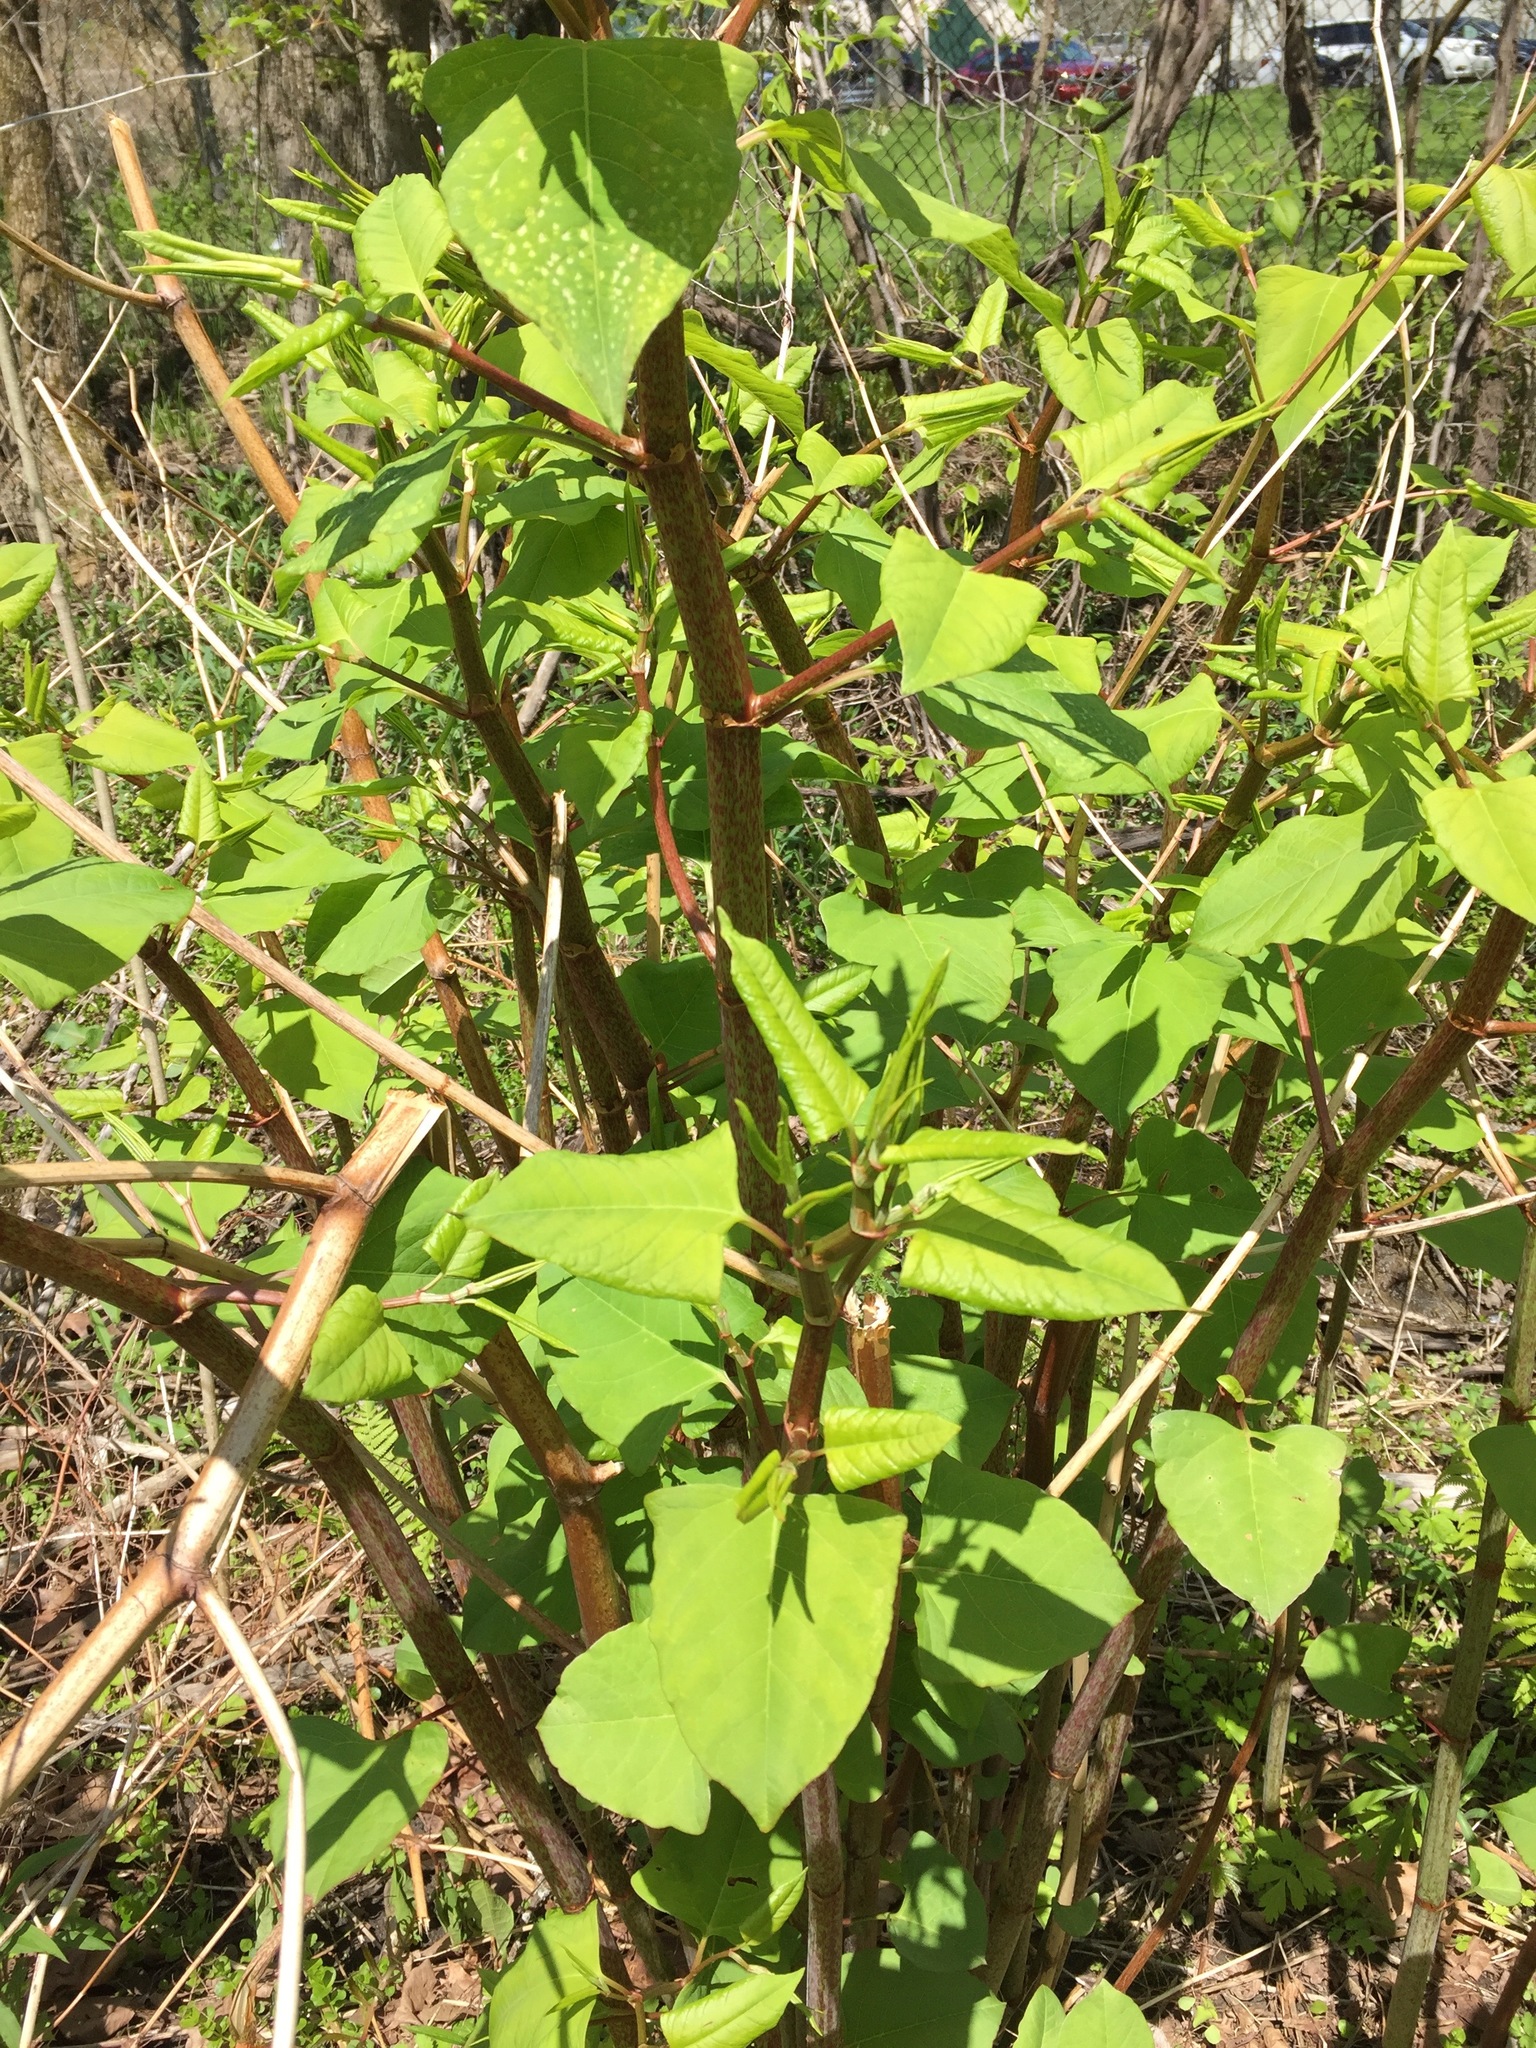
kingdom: Plantae
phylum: Tracheophyta
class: Magnoliopsida
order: Caryophyllales
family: Polygonaceae
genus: Reynoutria
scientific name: Reynoutria japonica
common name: Japanese knotweed
